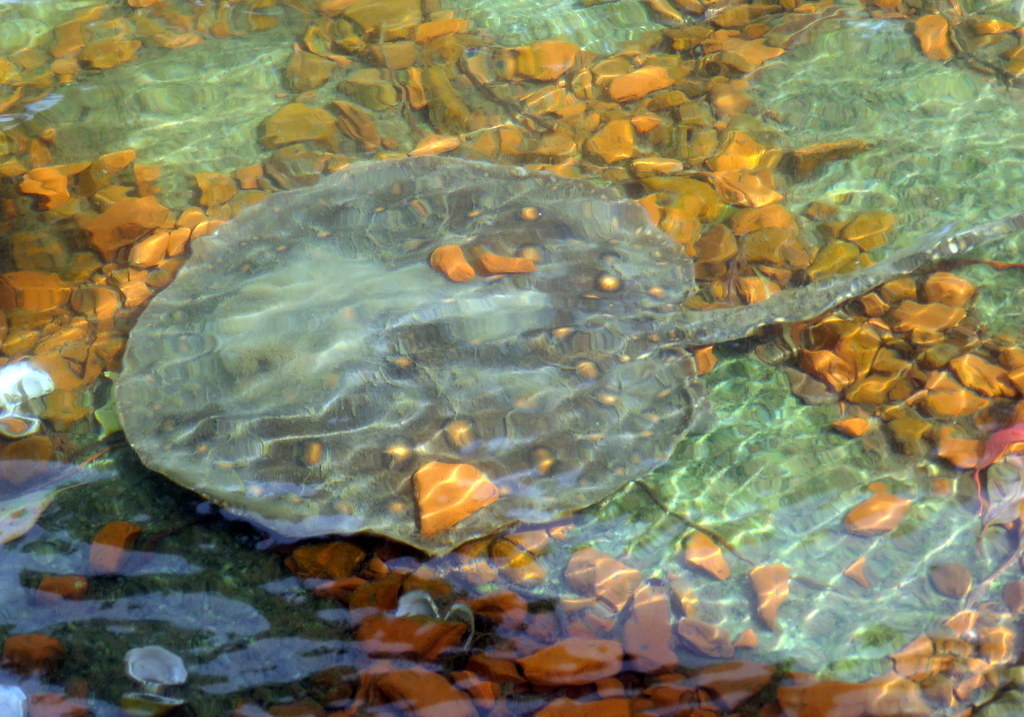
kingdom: Animalia
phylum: Chordata
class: Elasmobranchii
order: Myliobatiformes
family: Potamotrygonidae
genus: Potamotrygon
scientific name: Potamotrygon motoro
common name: South american freshwater stingray
